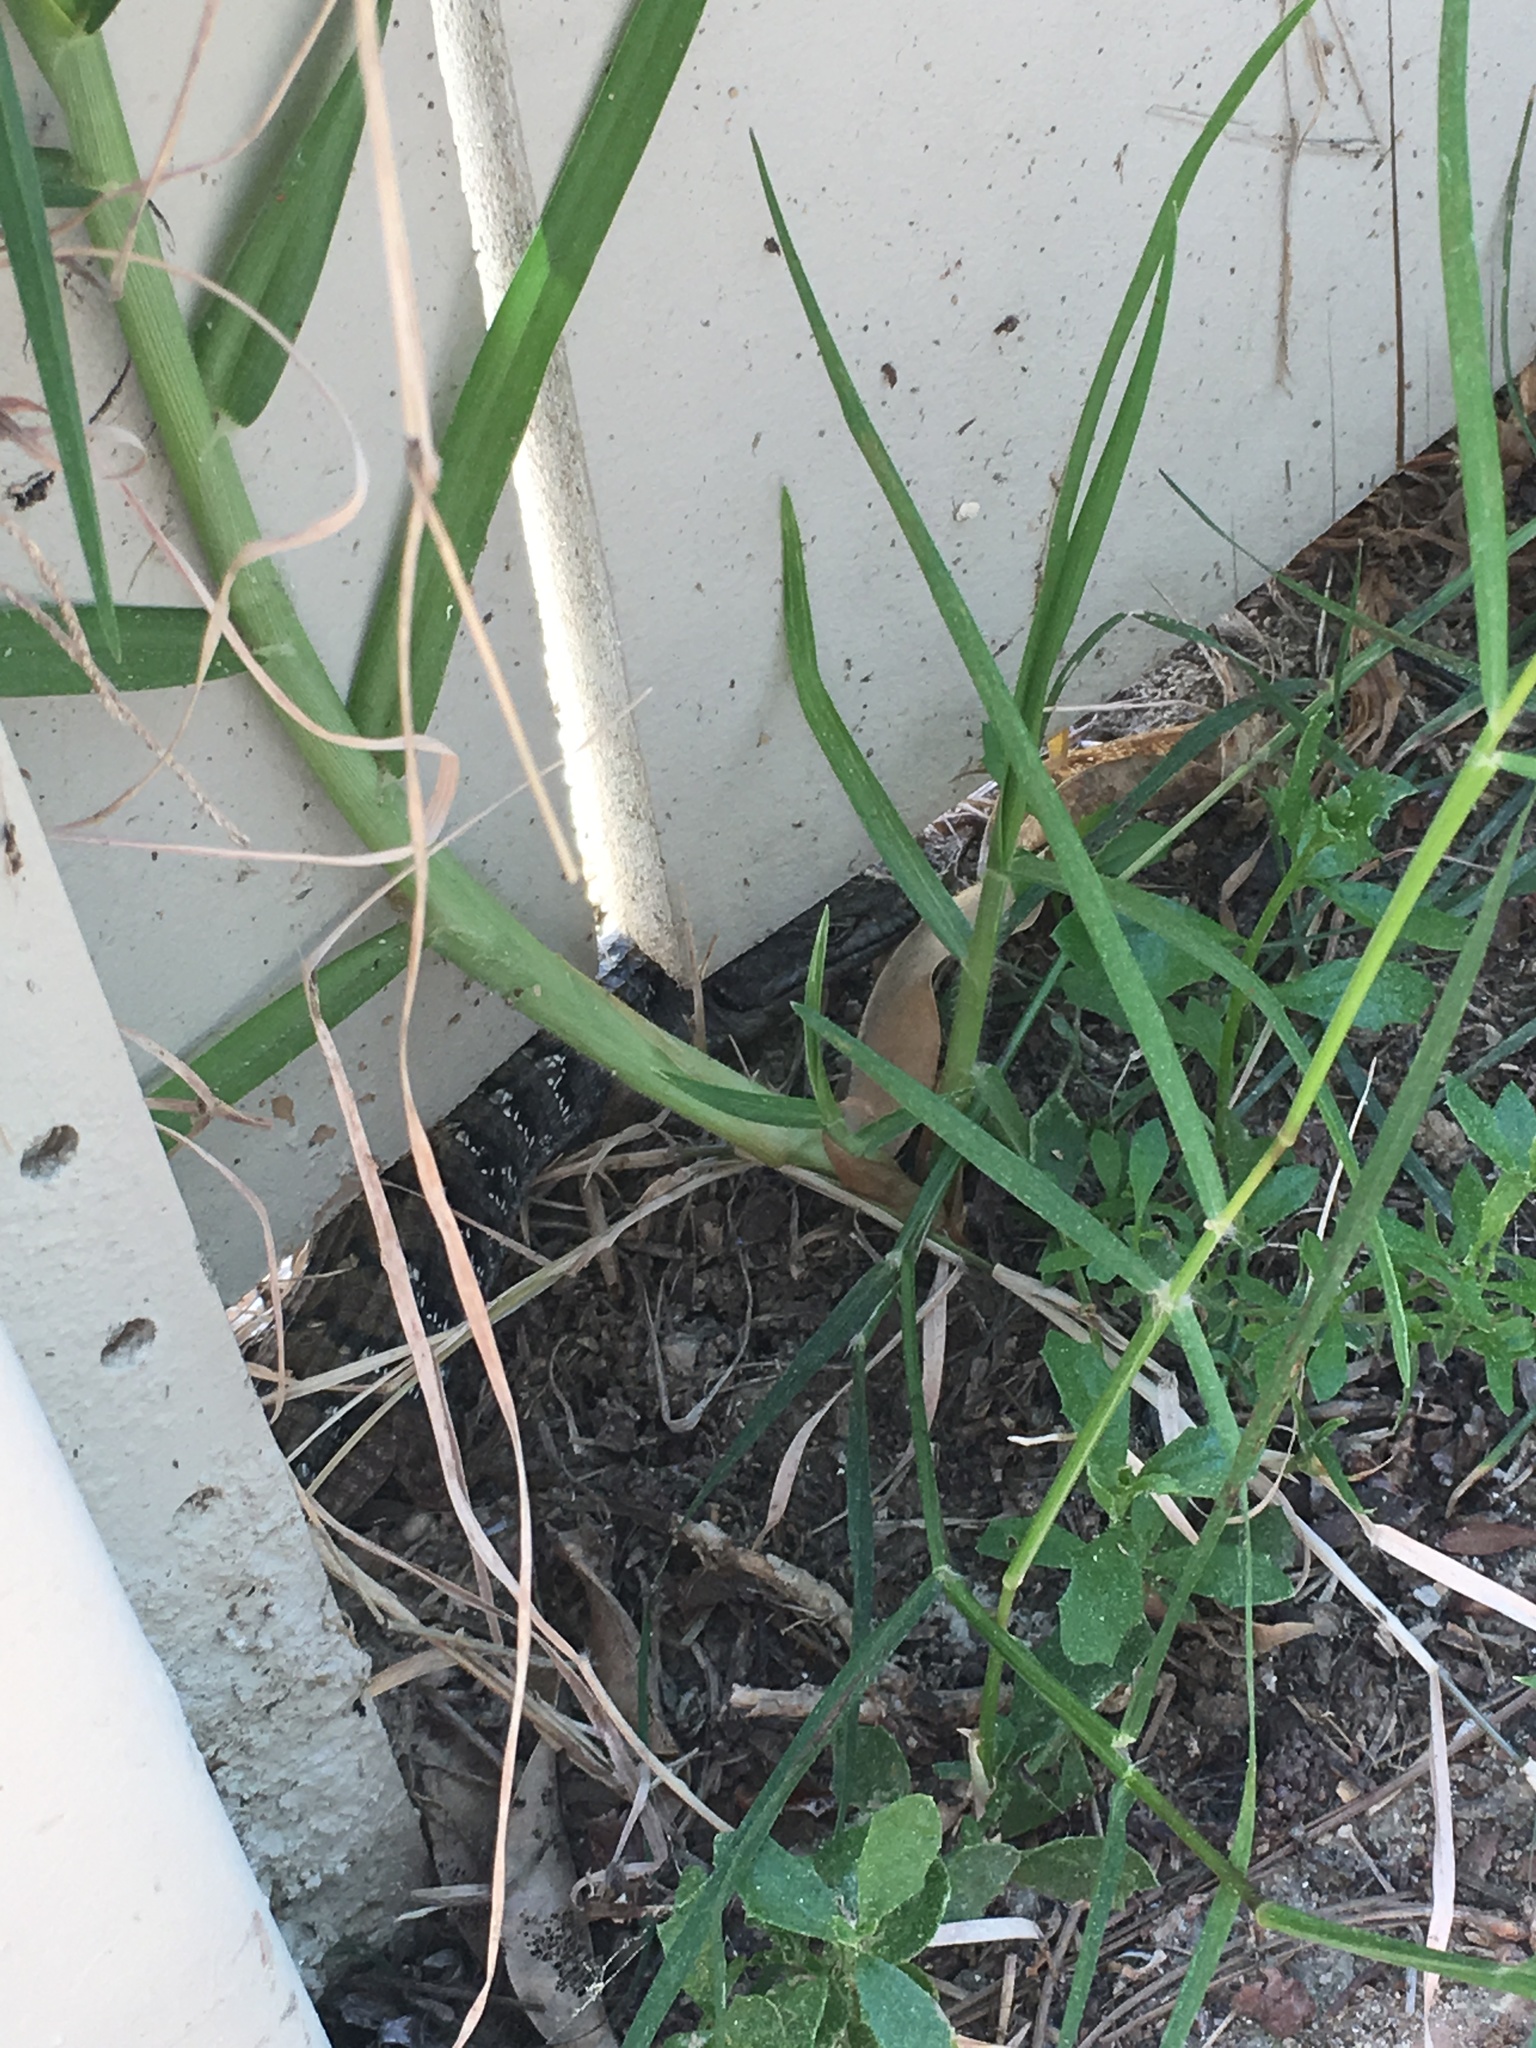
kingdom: Animalia
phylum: Chordata
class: Squamata
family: Anguidae
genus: Elgaria
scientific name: Elgaria multicarinata
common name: Southern alligator lizard
